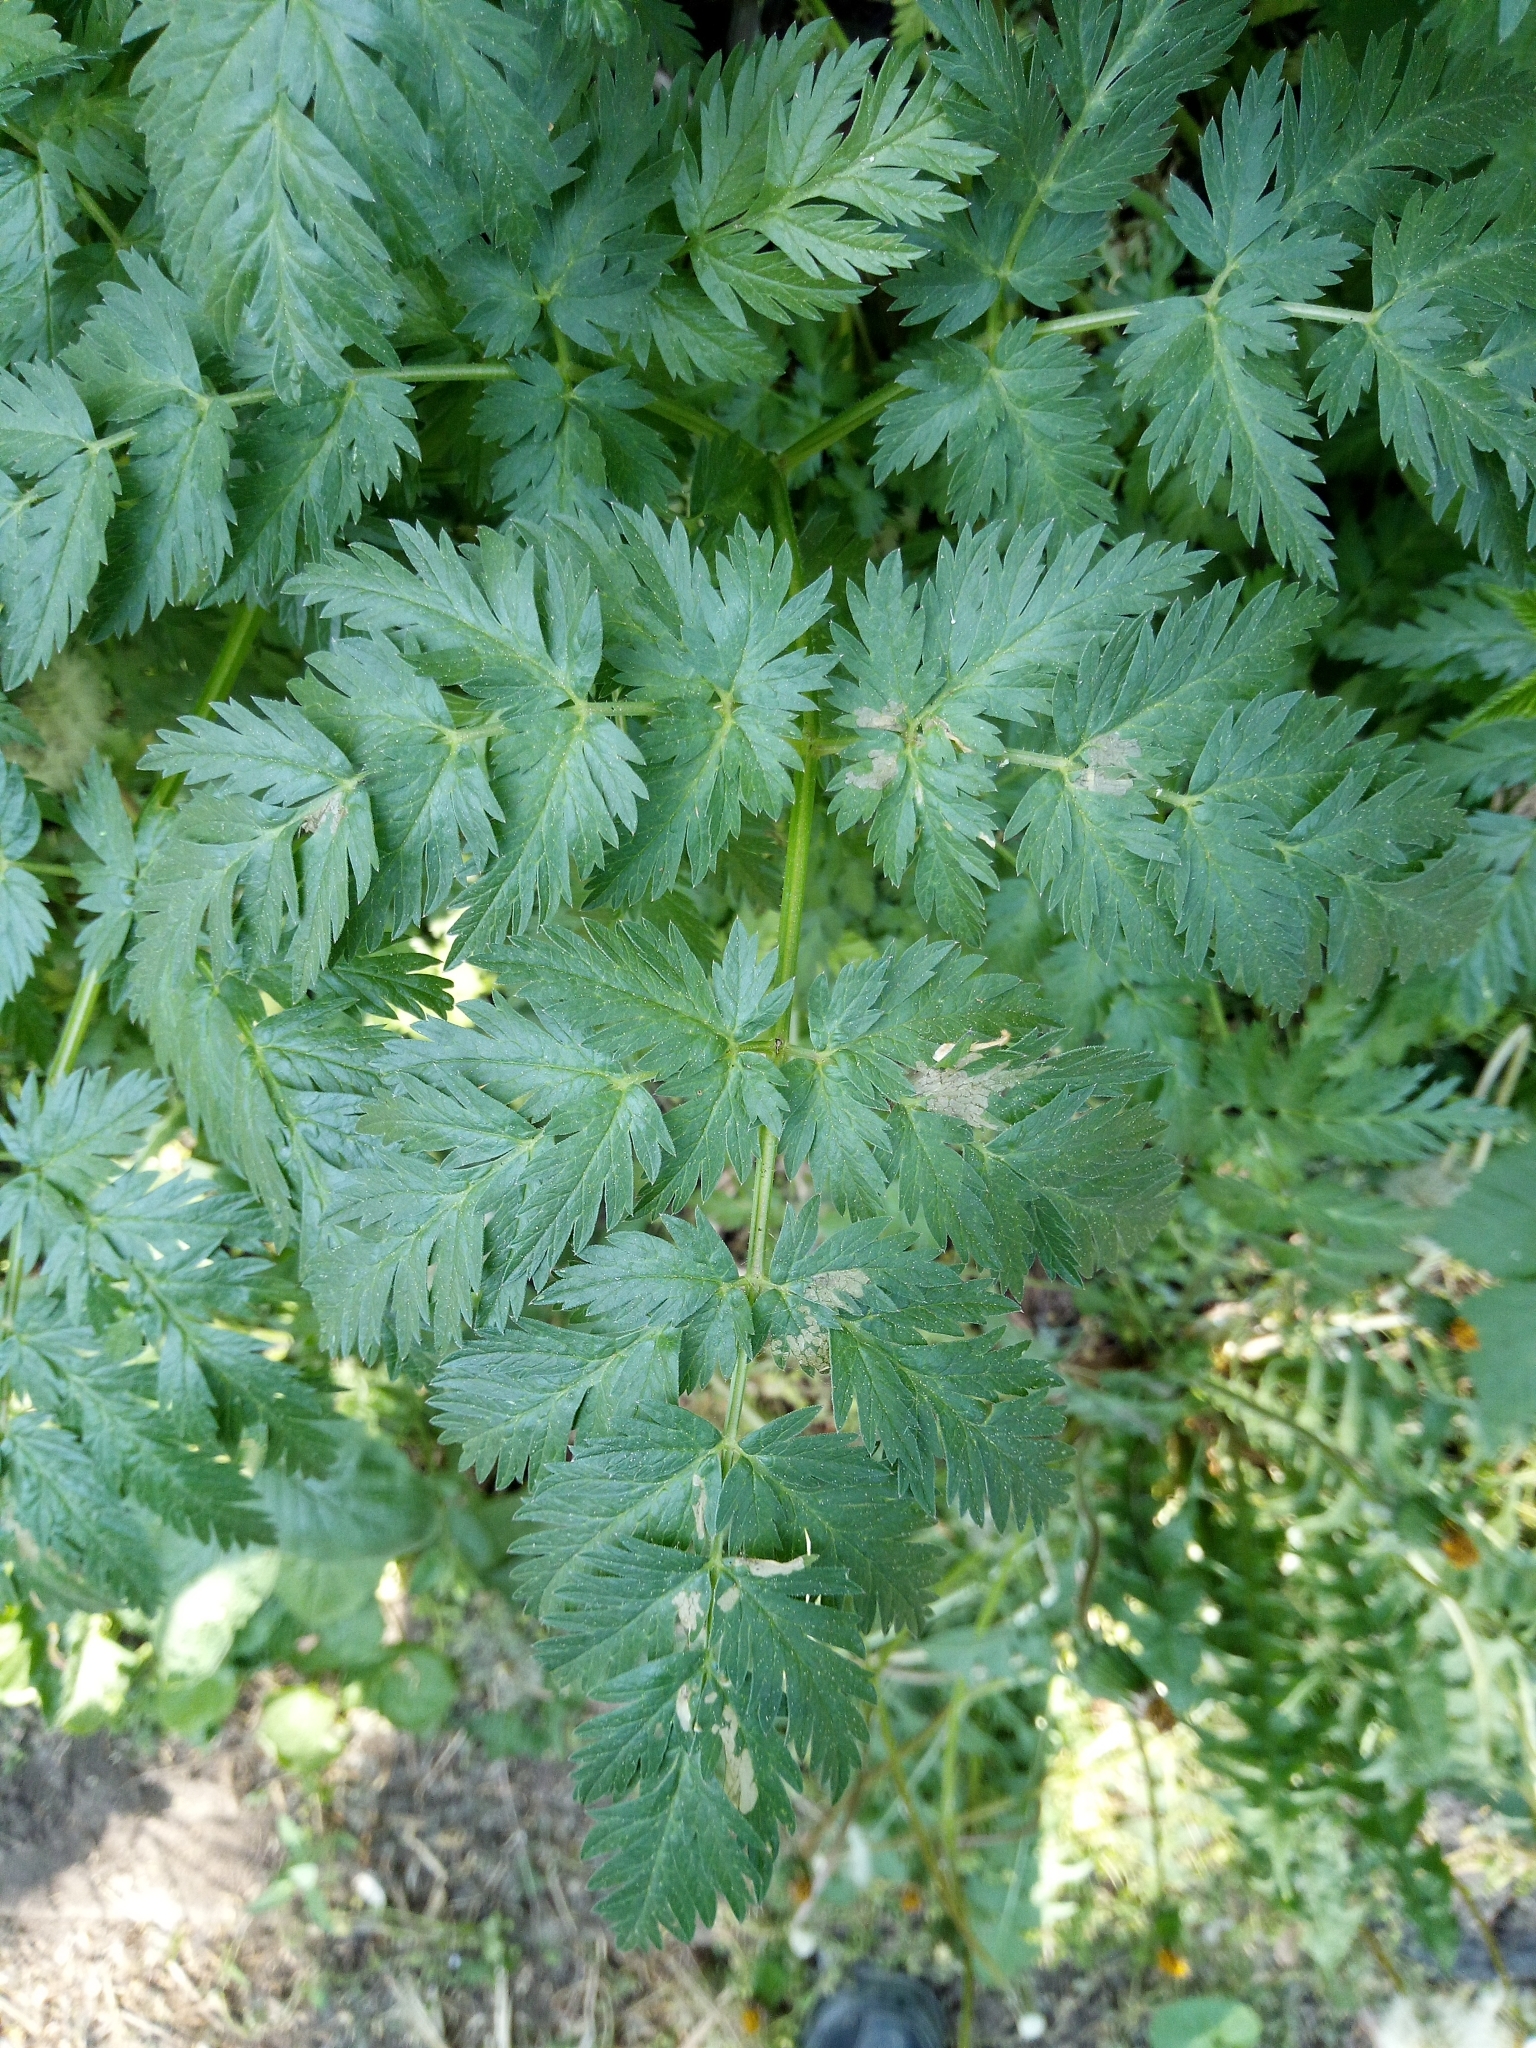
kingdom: Plantae
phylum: Tracheophyta
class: Magnoliopsida
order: Apiales
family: Apiaceae
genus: Anthriscus
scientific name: Anthriscus sylvestris
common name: Cow parsley
